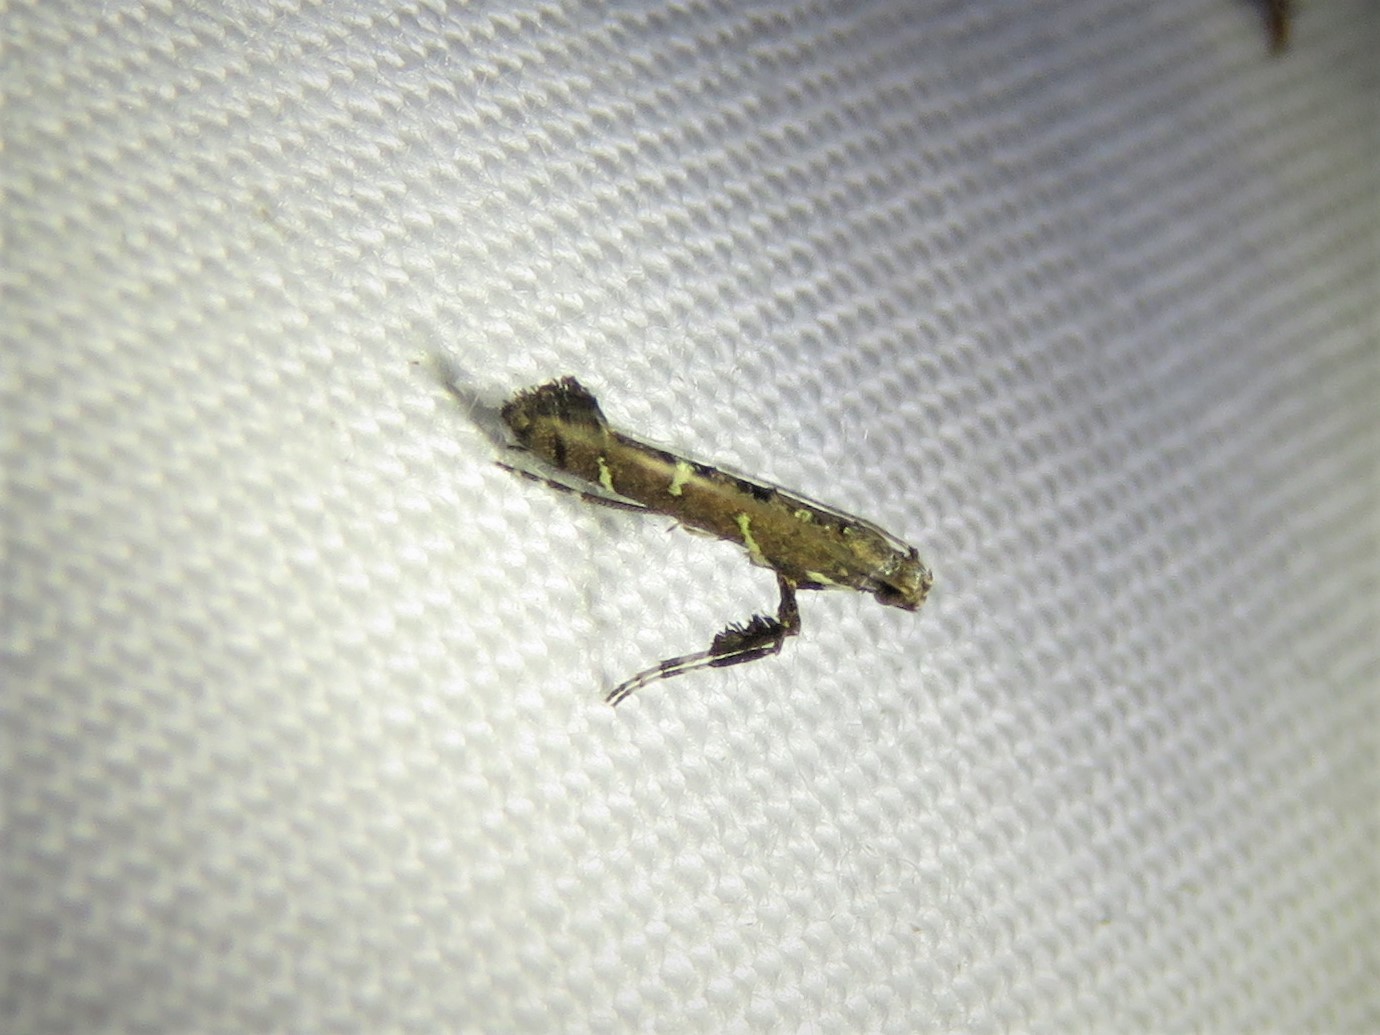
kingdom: Animalia
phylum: Arthropoda
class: Insecta
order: Lepidoptera
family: Gracillariidae
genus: Caloptilia
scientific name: Caloptilia triadicae
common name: Tallow leaf roller
